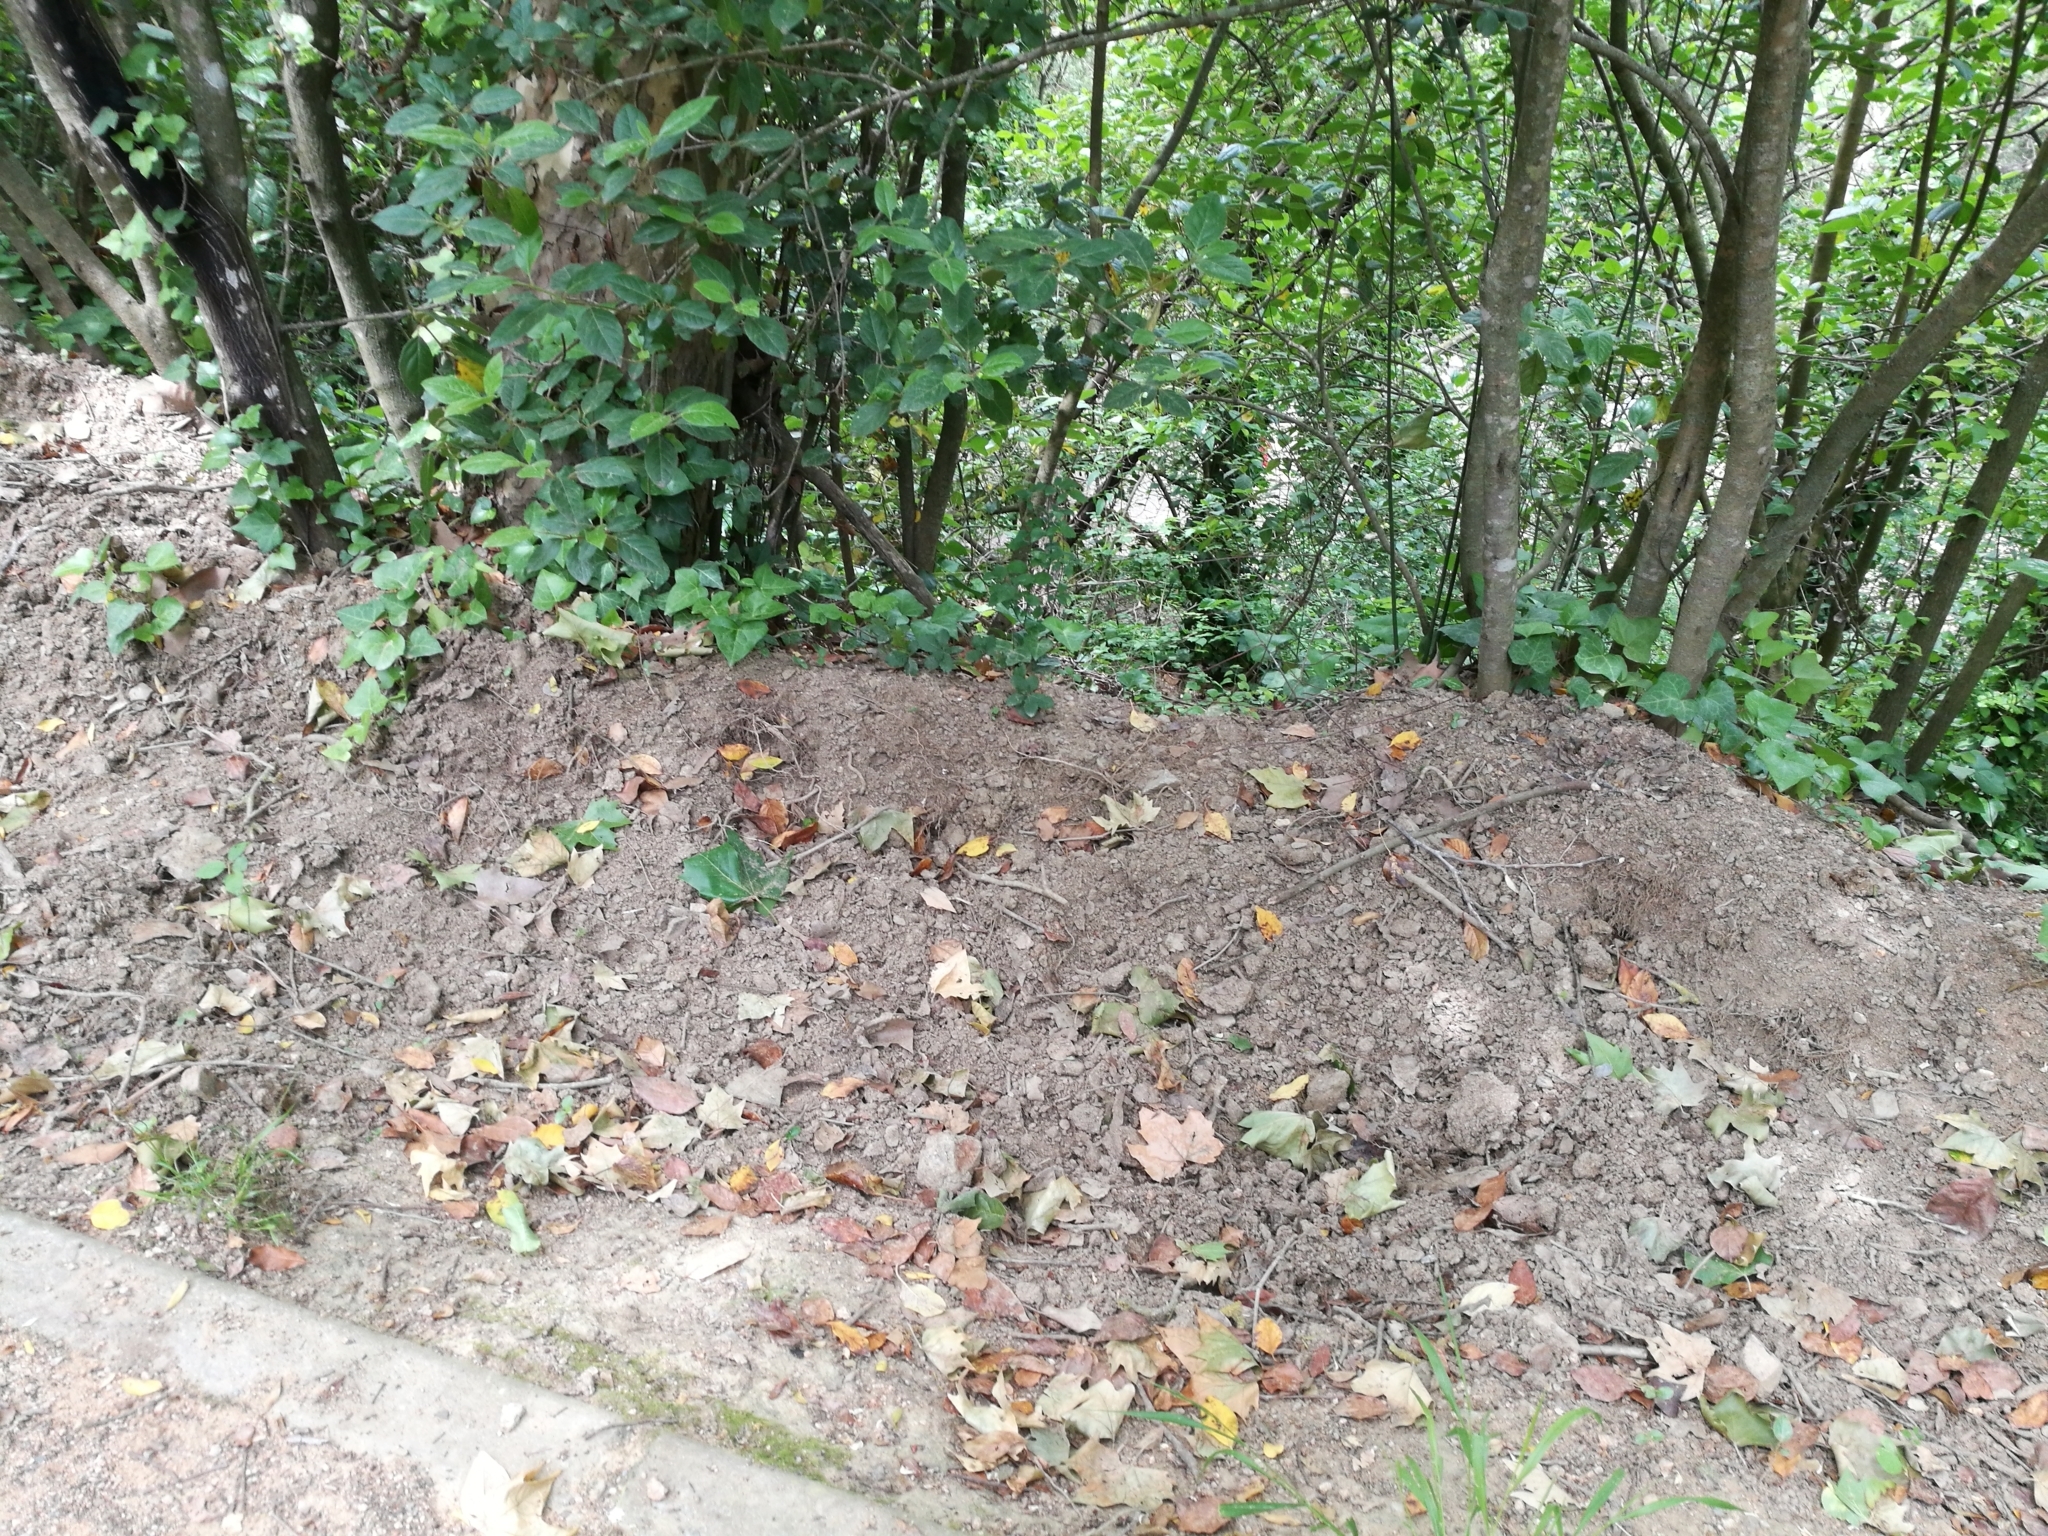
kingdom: Animalia
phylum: Chordata
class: Mammalia
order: Artiodactyla
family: Suidae
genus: Sus
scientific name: Sus scrofa
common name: Wild boar
